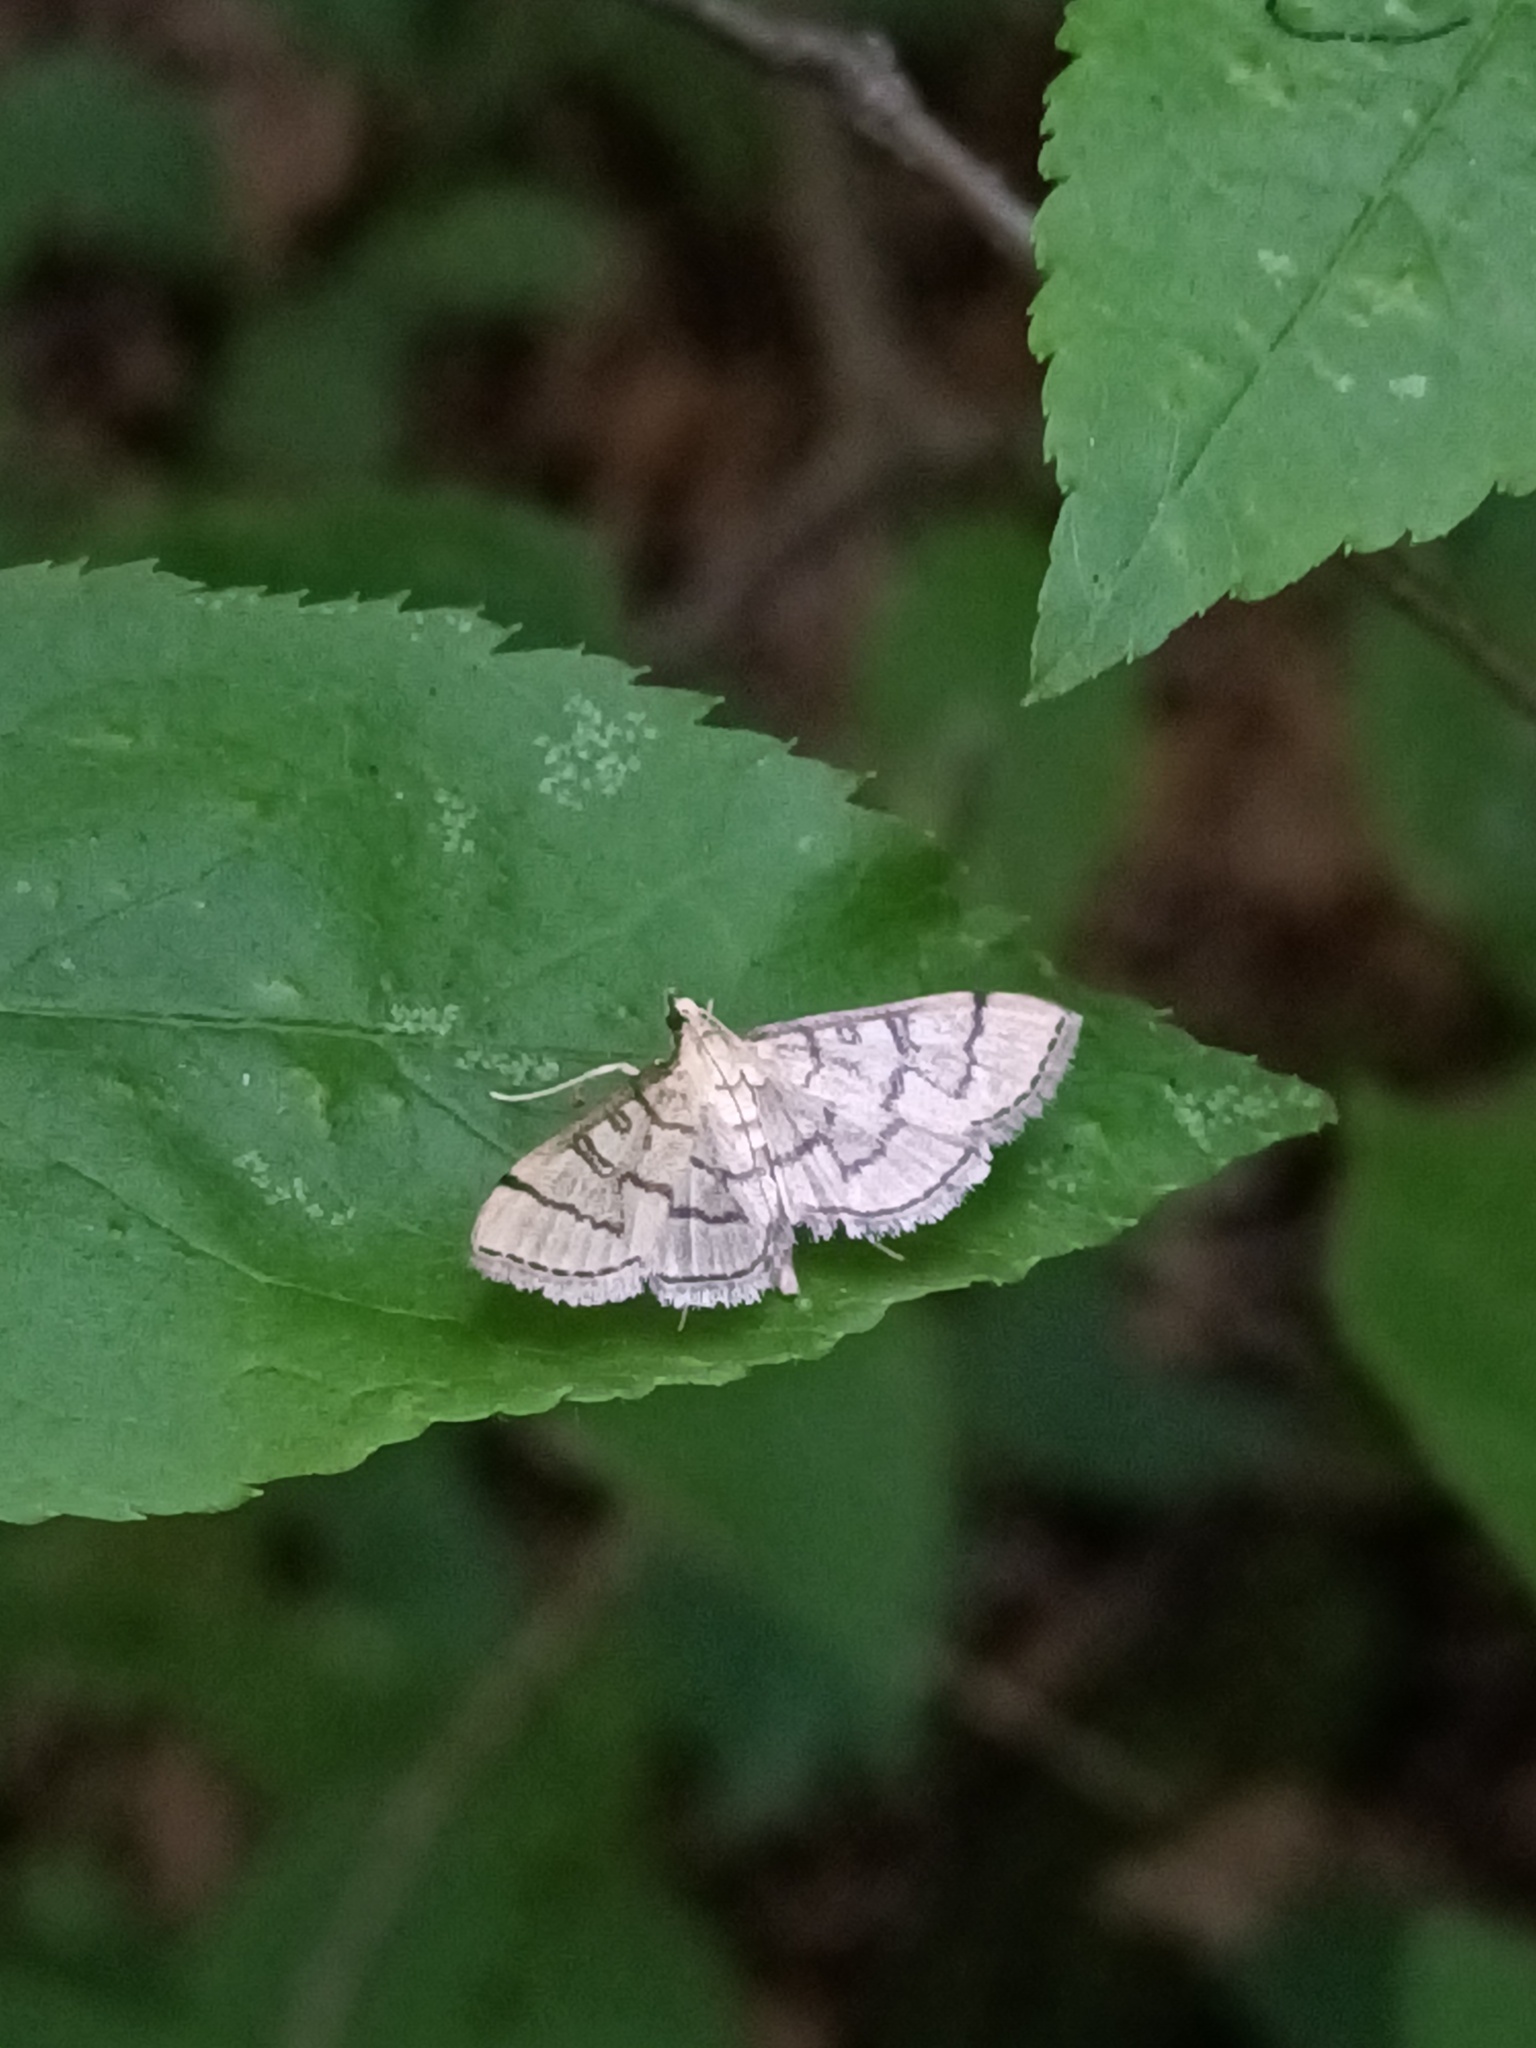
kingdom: Animalia
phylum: Arthropoda
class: Insecta
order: Lepidoptera
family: Crambidae
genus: Lamprosema
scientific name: Lamprosema Blepharomastix ranalis
